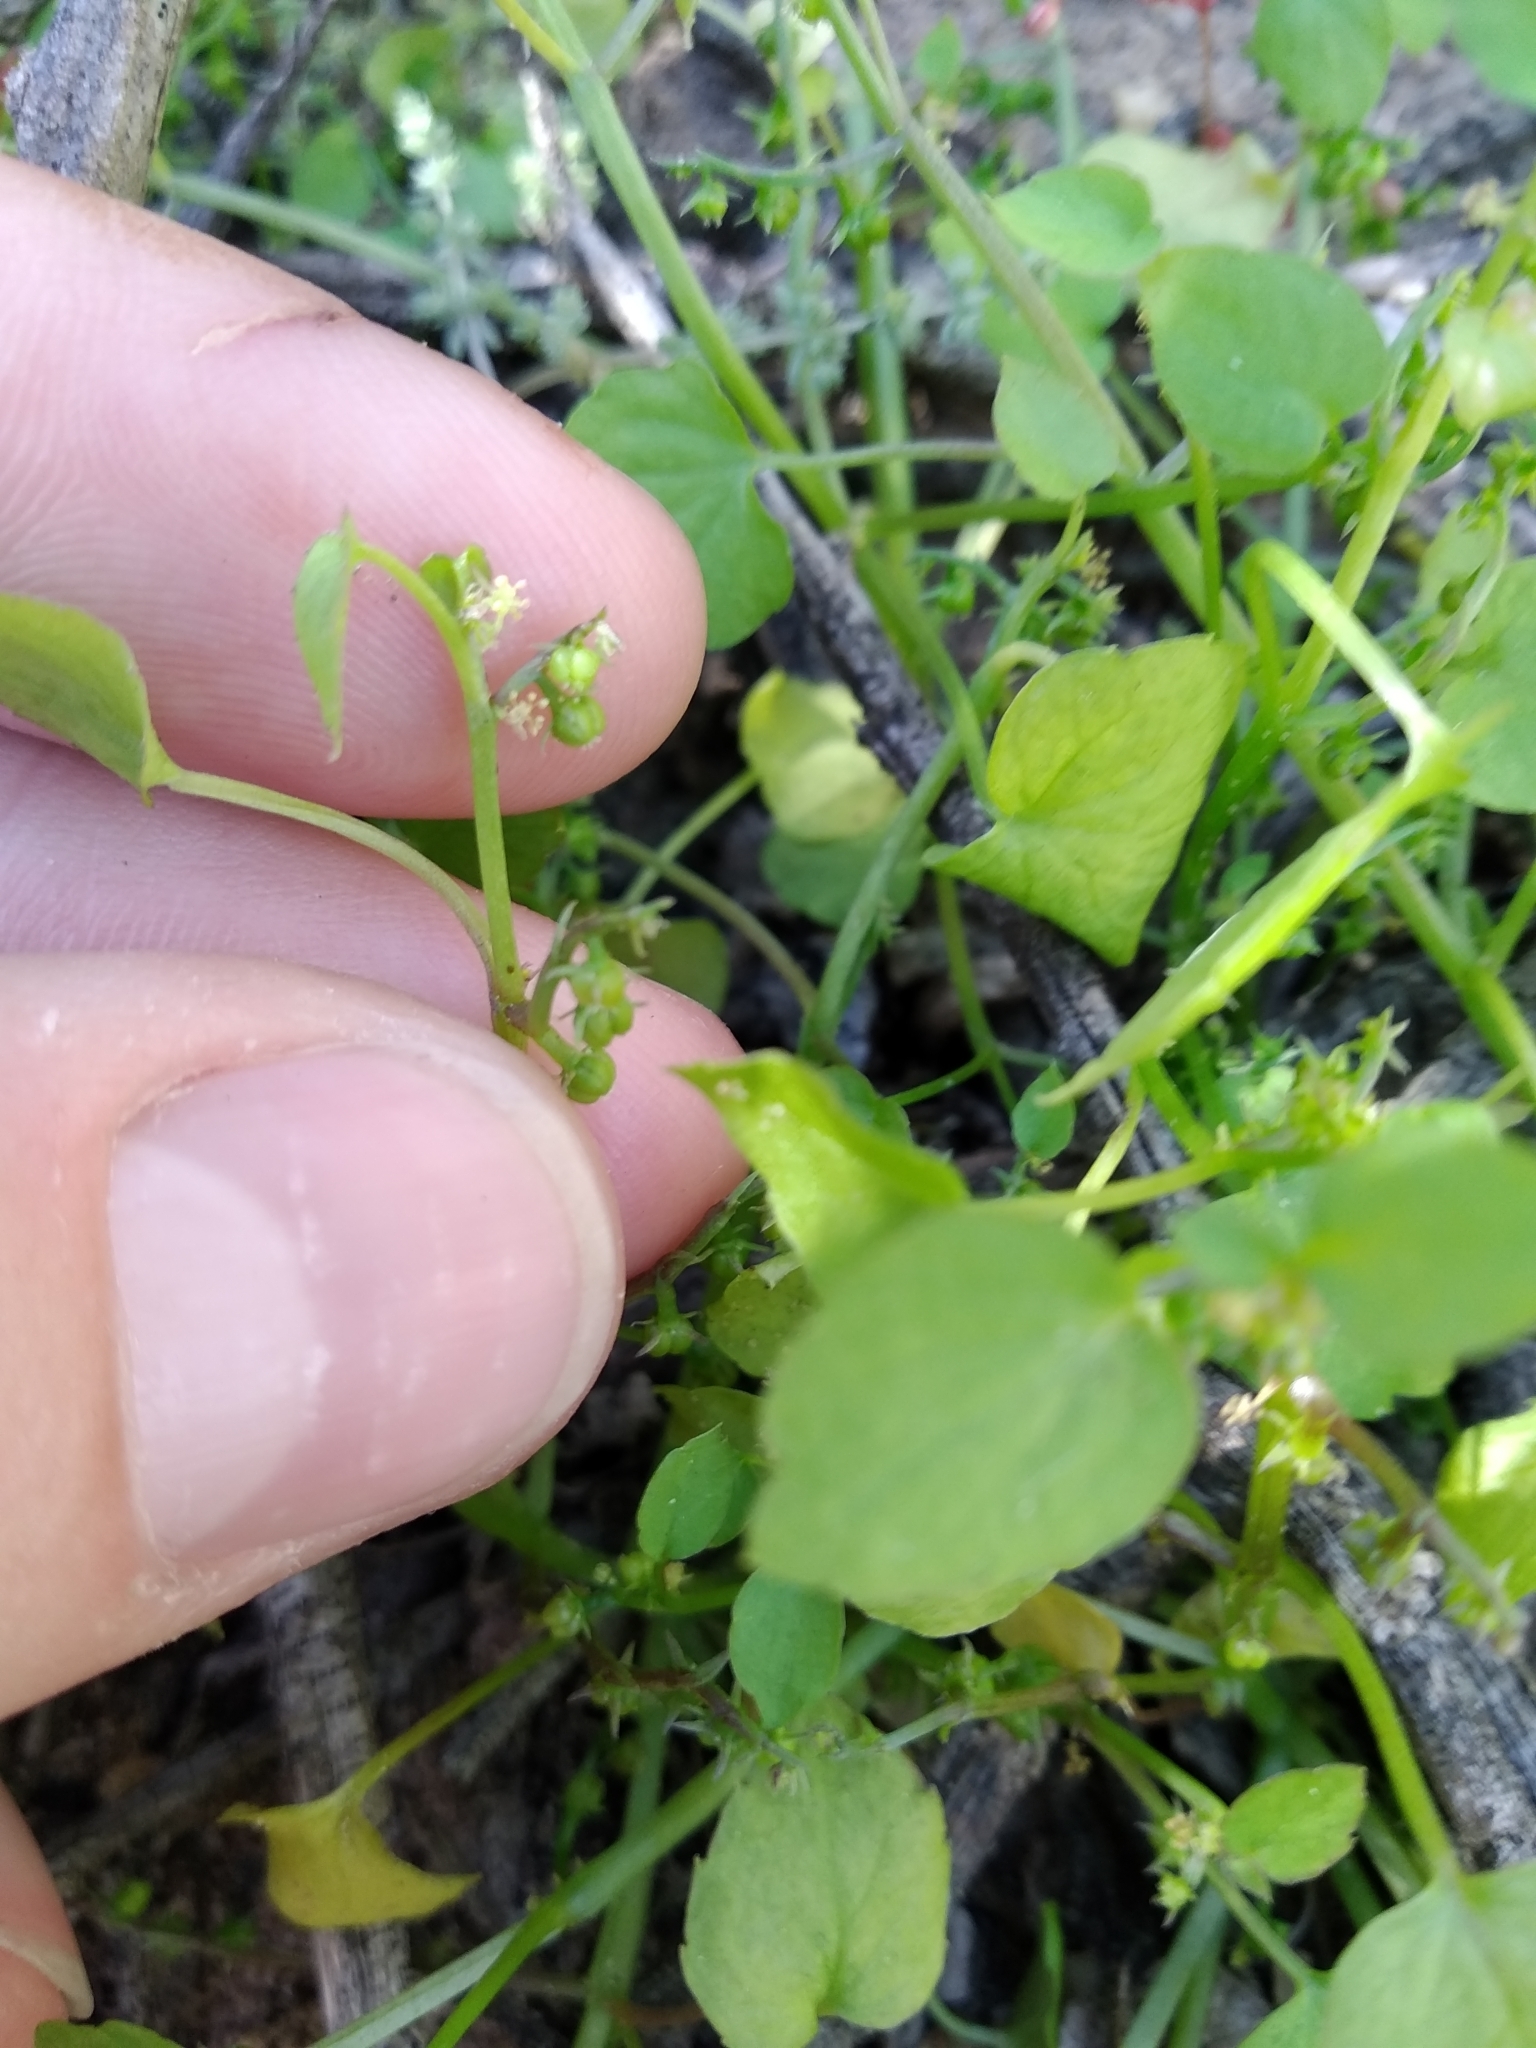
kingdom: Plantae
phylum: Tracheophyta
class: Magnoliopsida
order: Malpighiales
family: Euphorbiaceae
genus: Adenocline
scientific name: Adenocline violifolia
